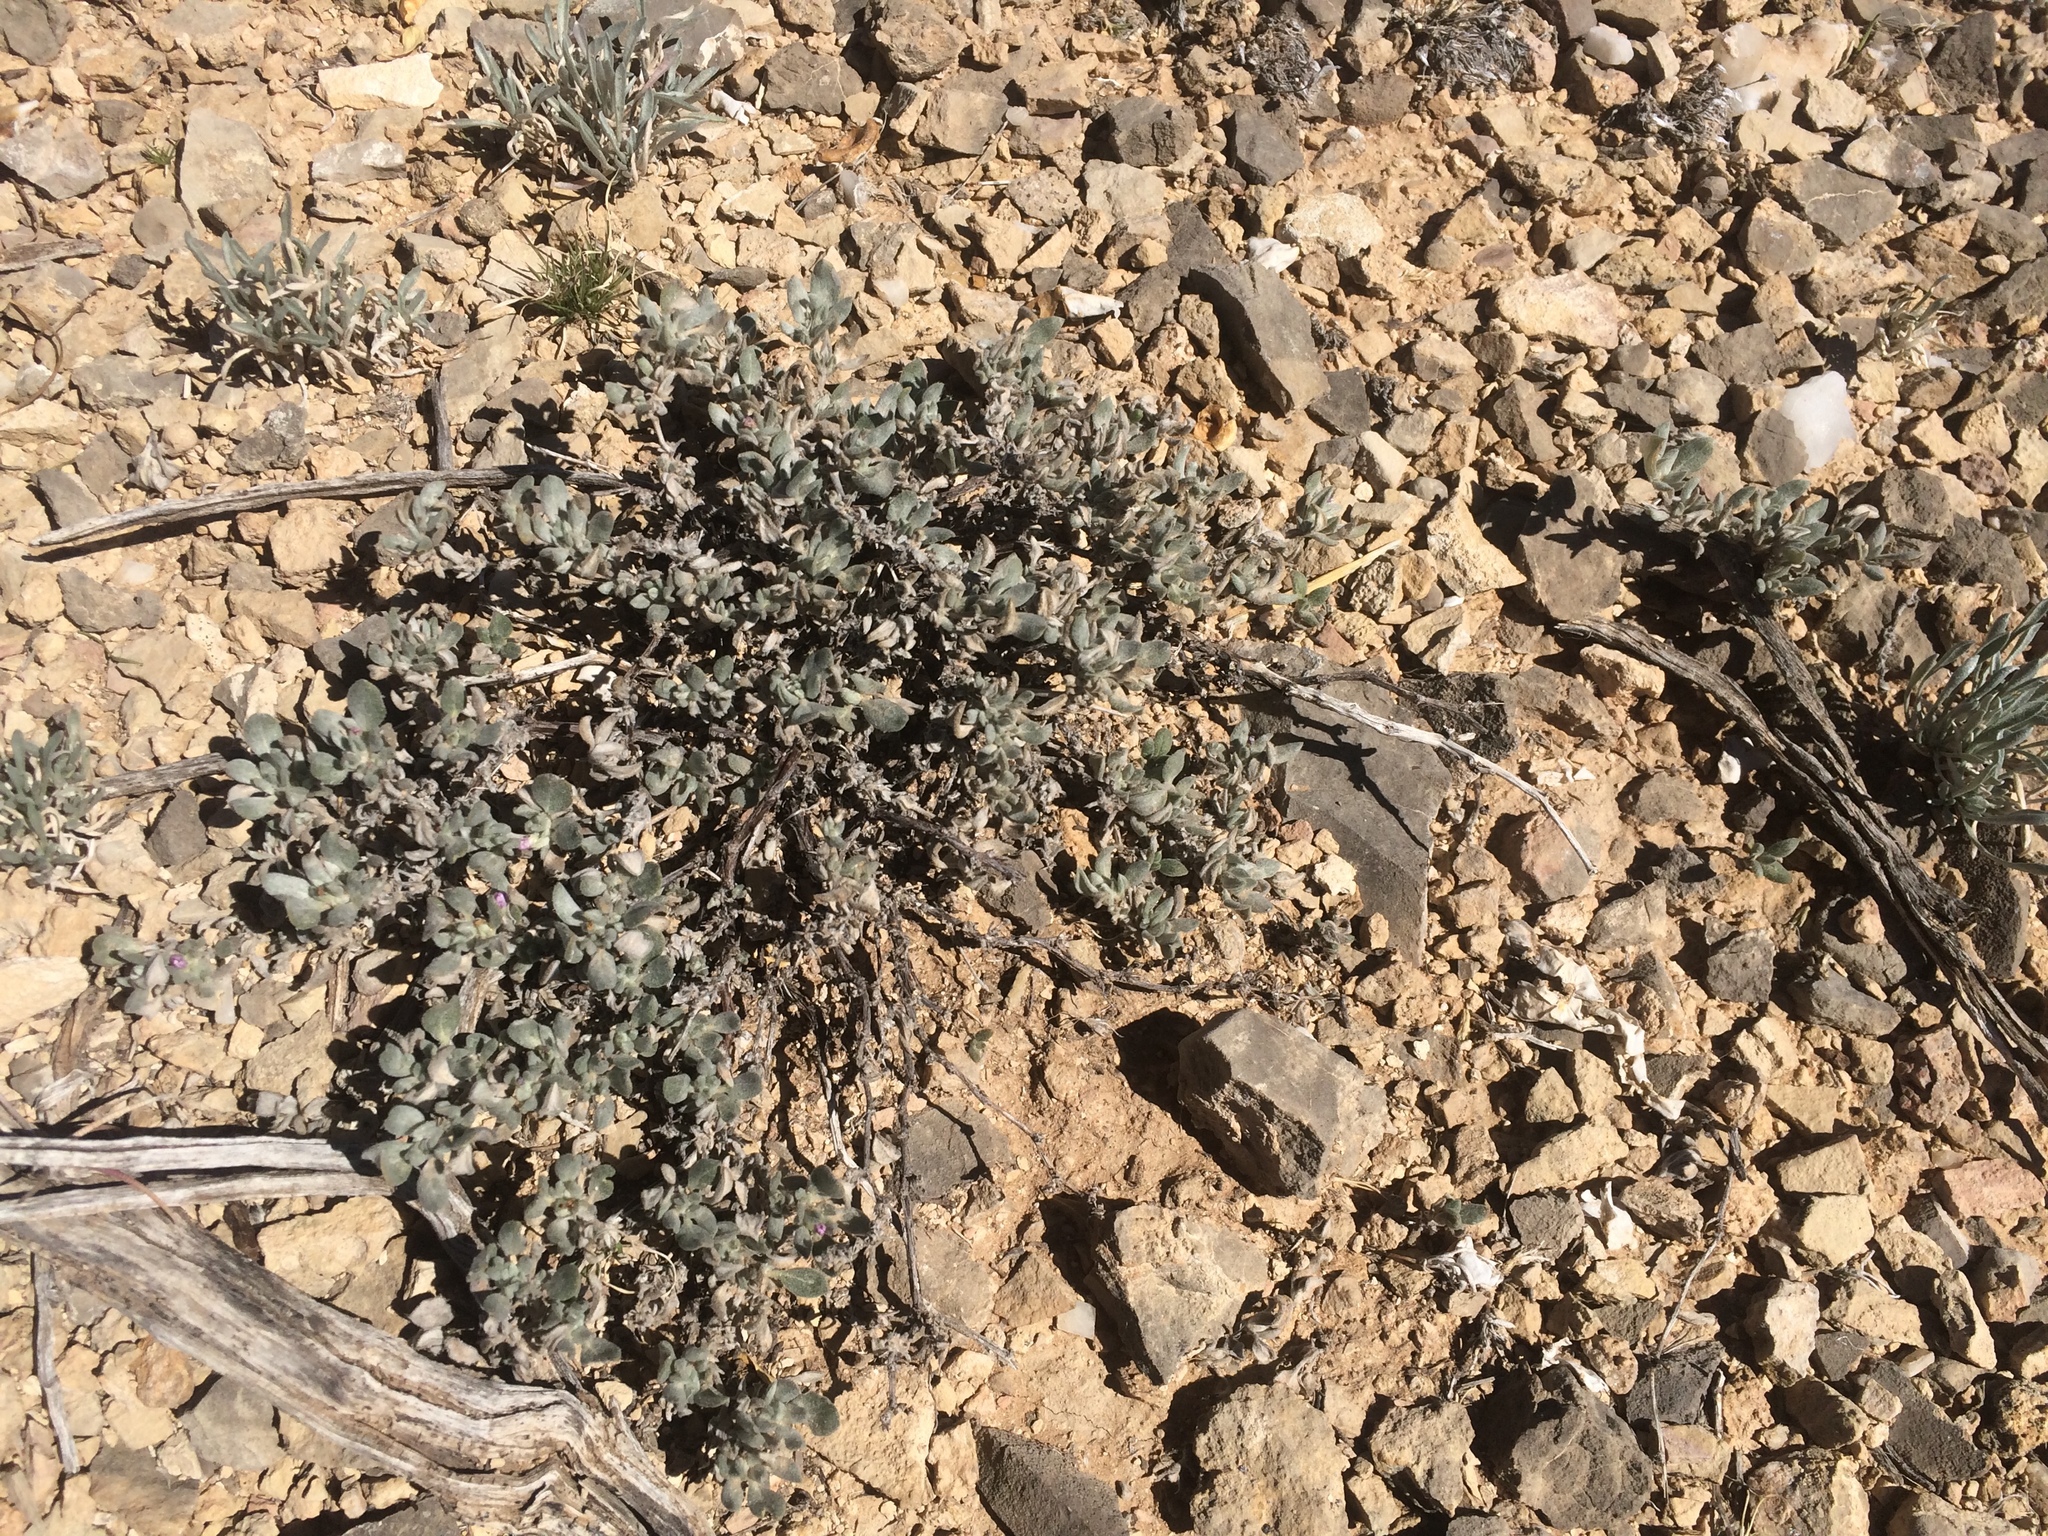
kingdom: Plantae
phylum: Tracheophyta
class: Magnoliopsida
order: Boraginales
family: Ehretiaceae
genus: Tiquilia
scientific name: Tiquilia canescens
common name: Hairy tiquilia
